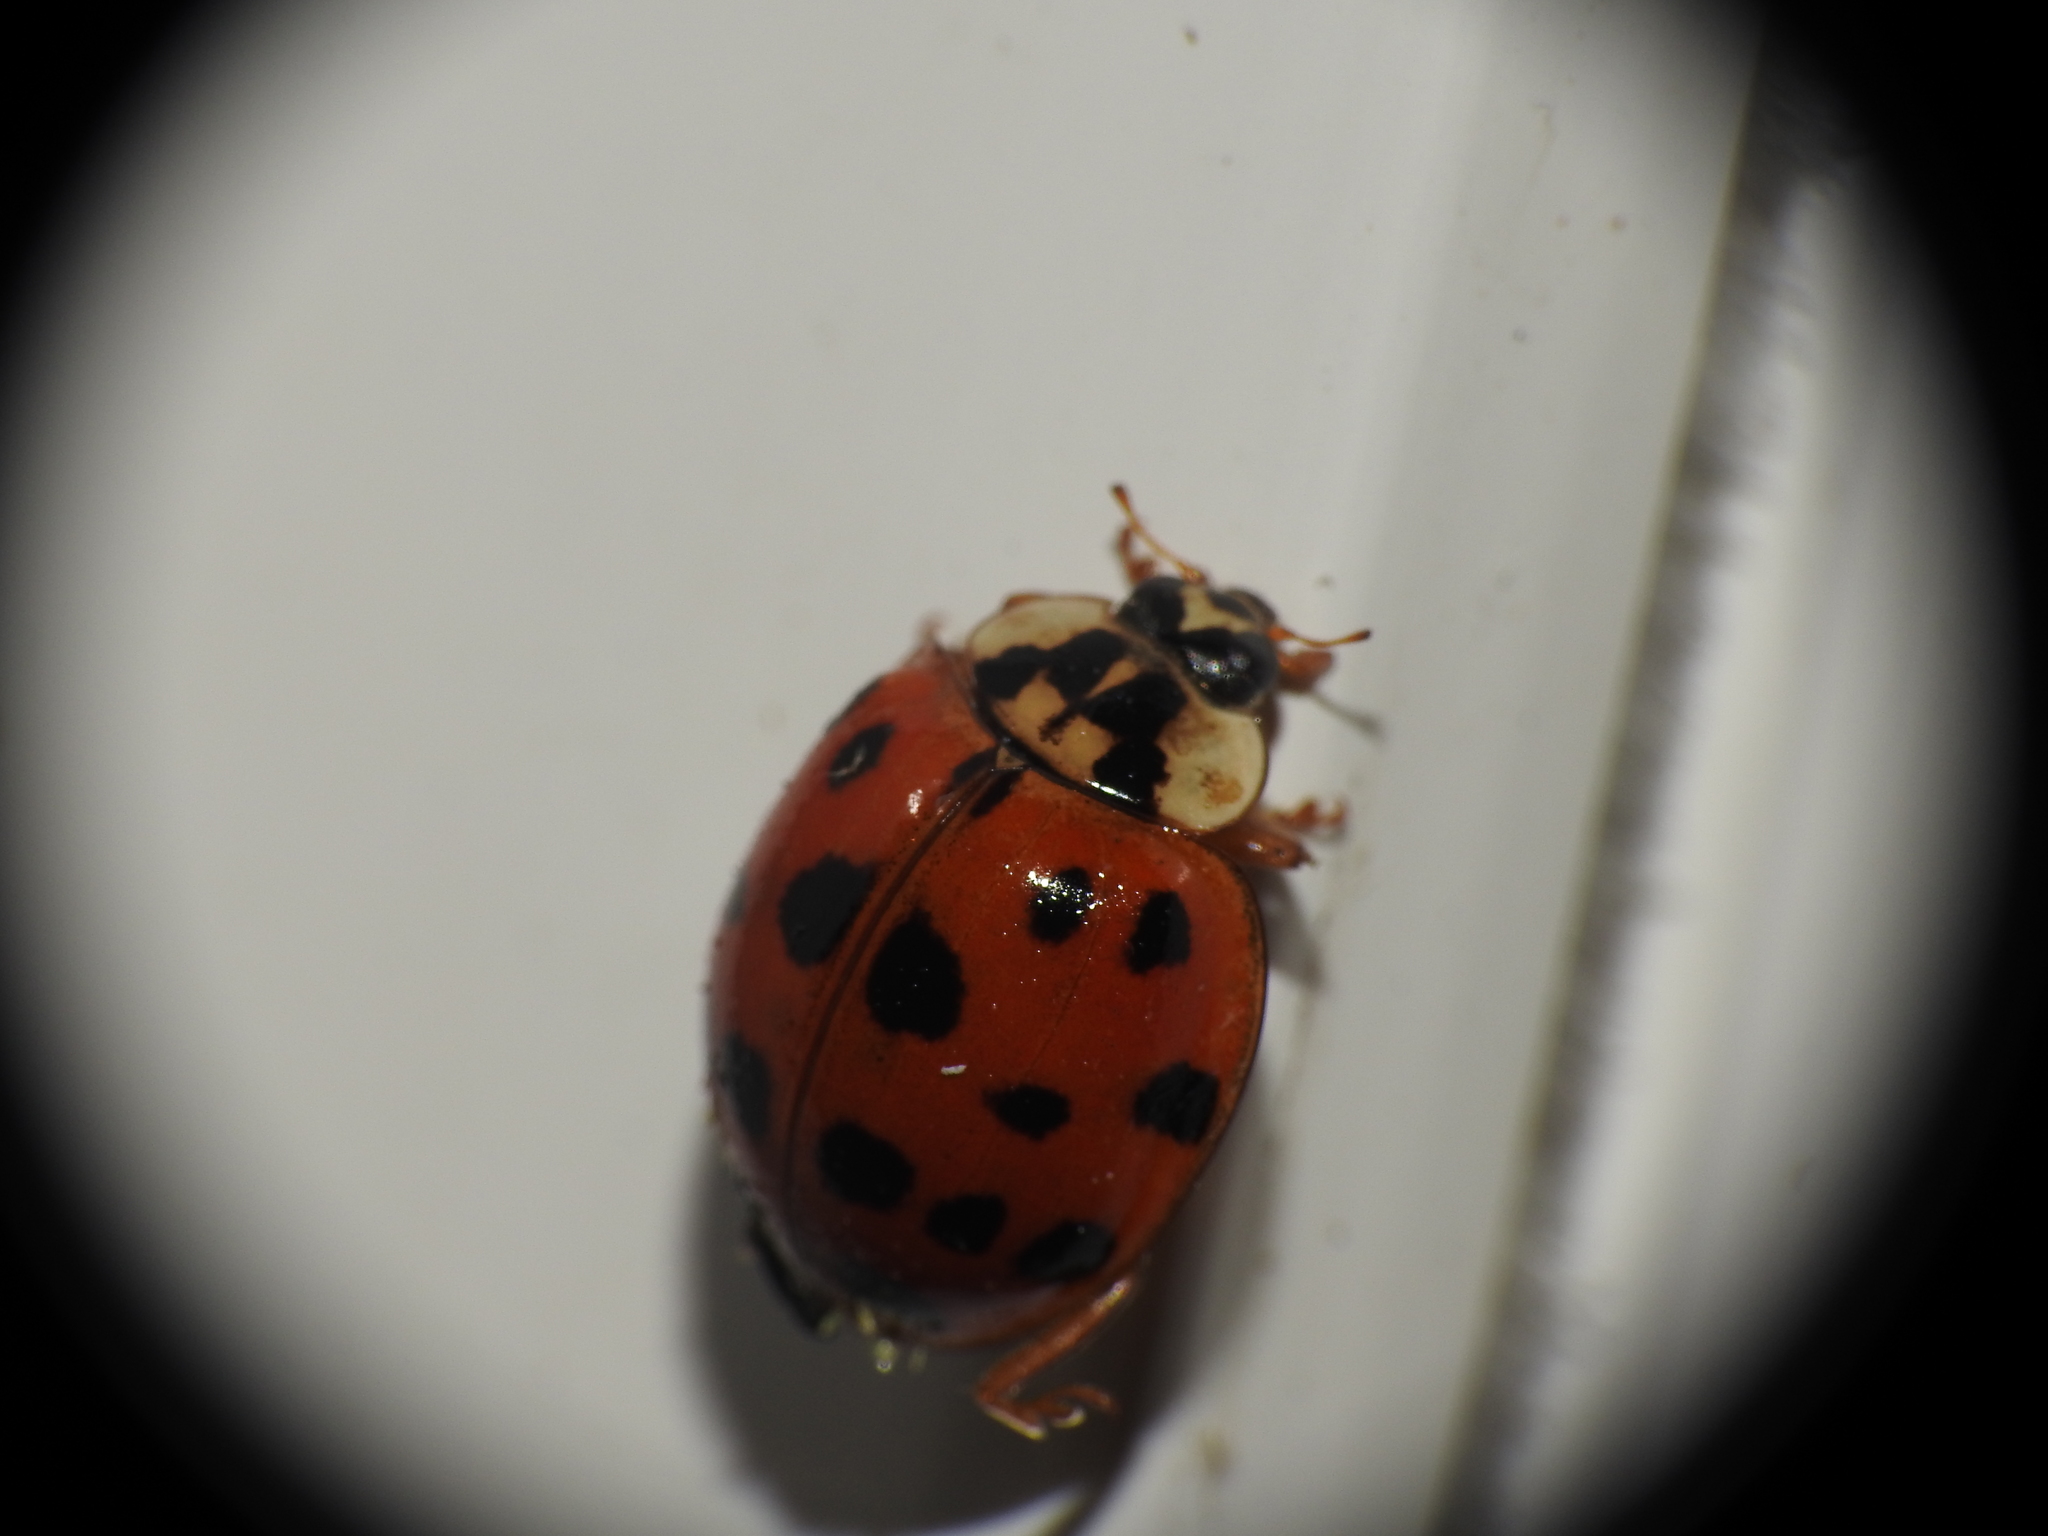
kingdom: Animalia
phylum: Arthropoda
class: Insecta
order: Coleoptera
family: Coccinellidae
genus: Harmonia
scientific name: Harmonia axyridis
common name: Harlequin ladybird
